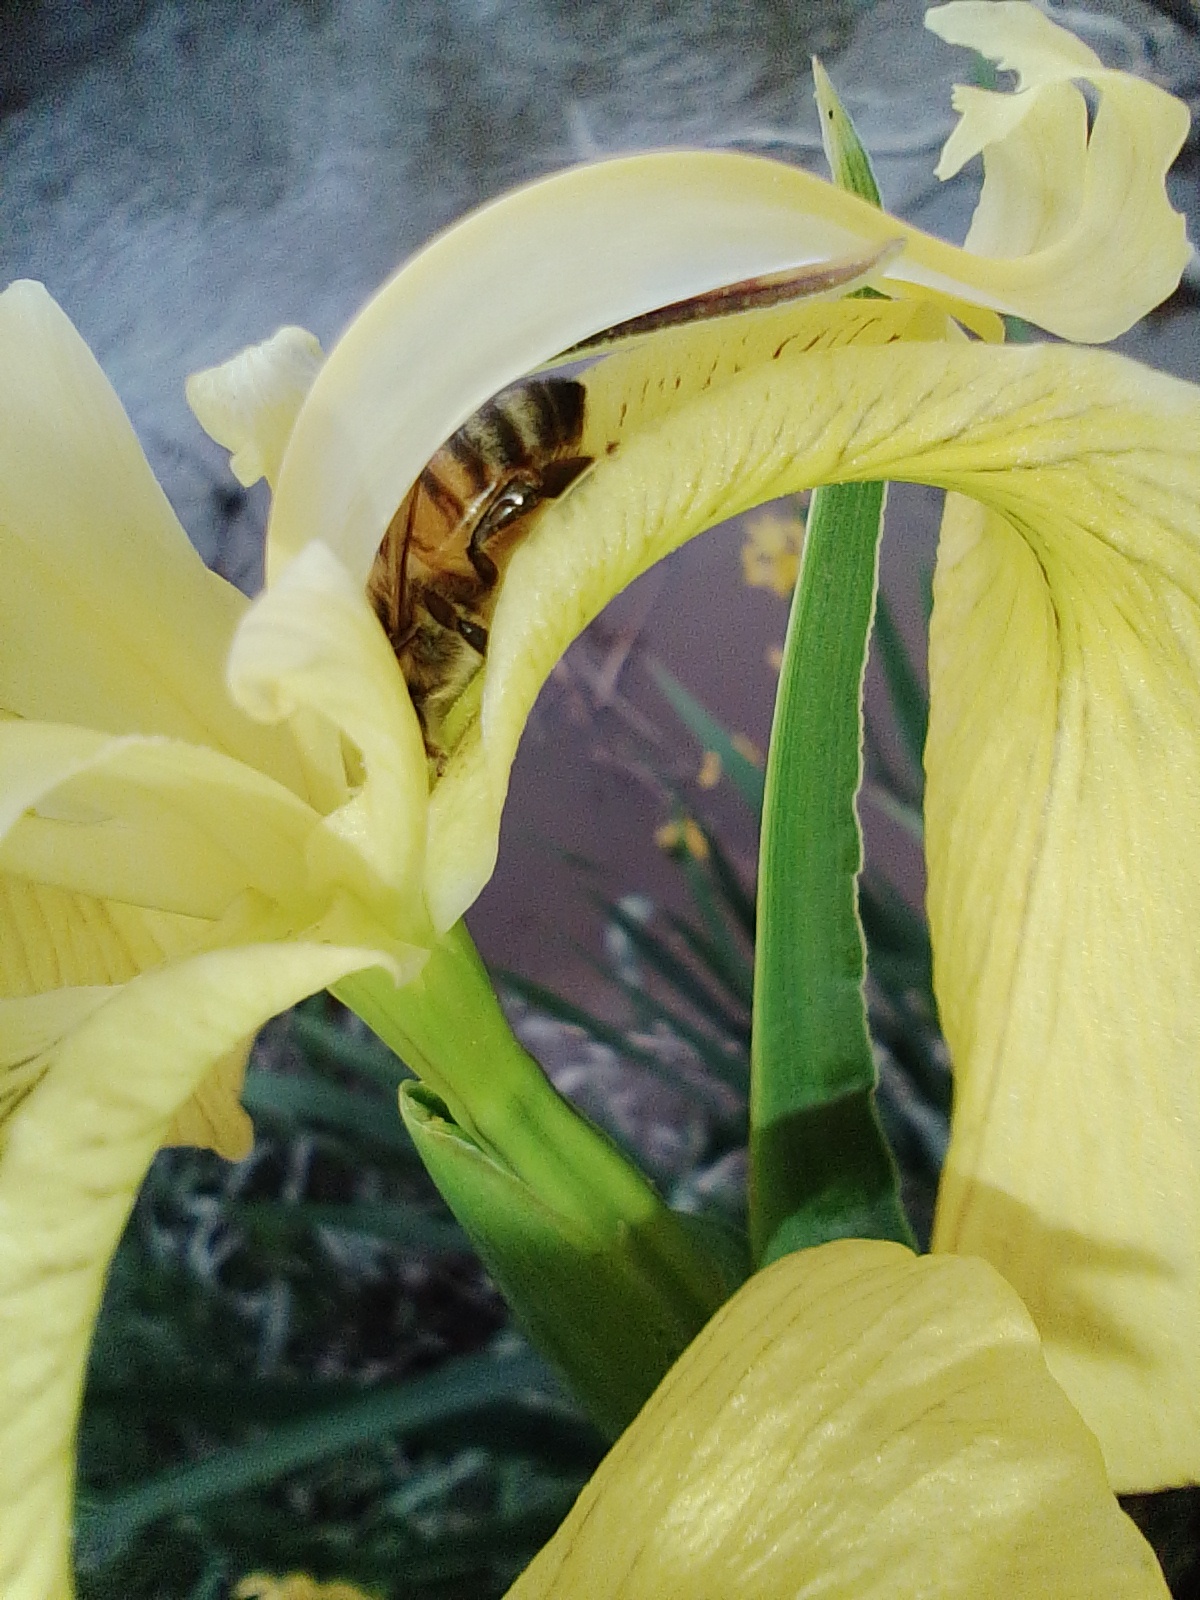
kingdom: Animalia
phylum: Arthropoda
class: Insecta
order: Hymenoptera
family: Apidae
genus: Apis
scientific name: Apis mellifera
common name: Honey bee
